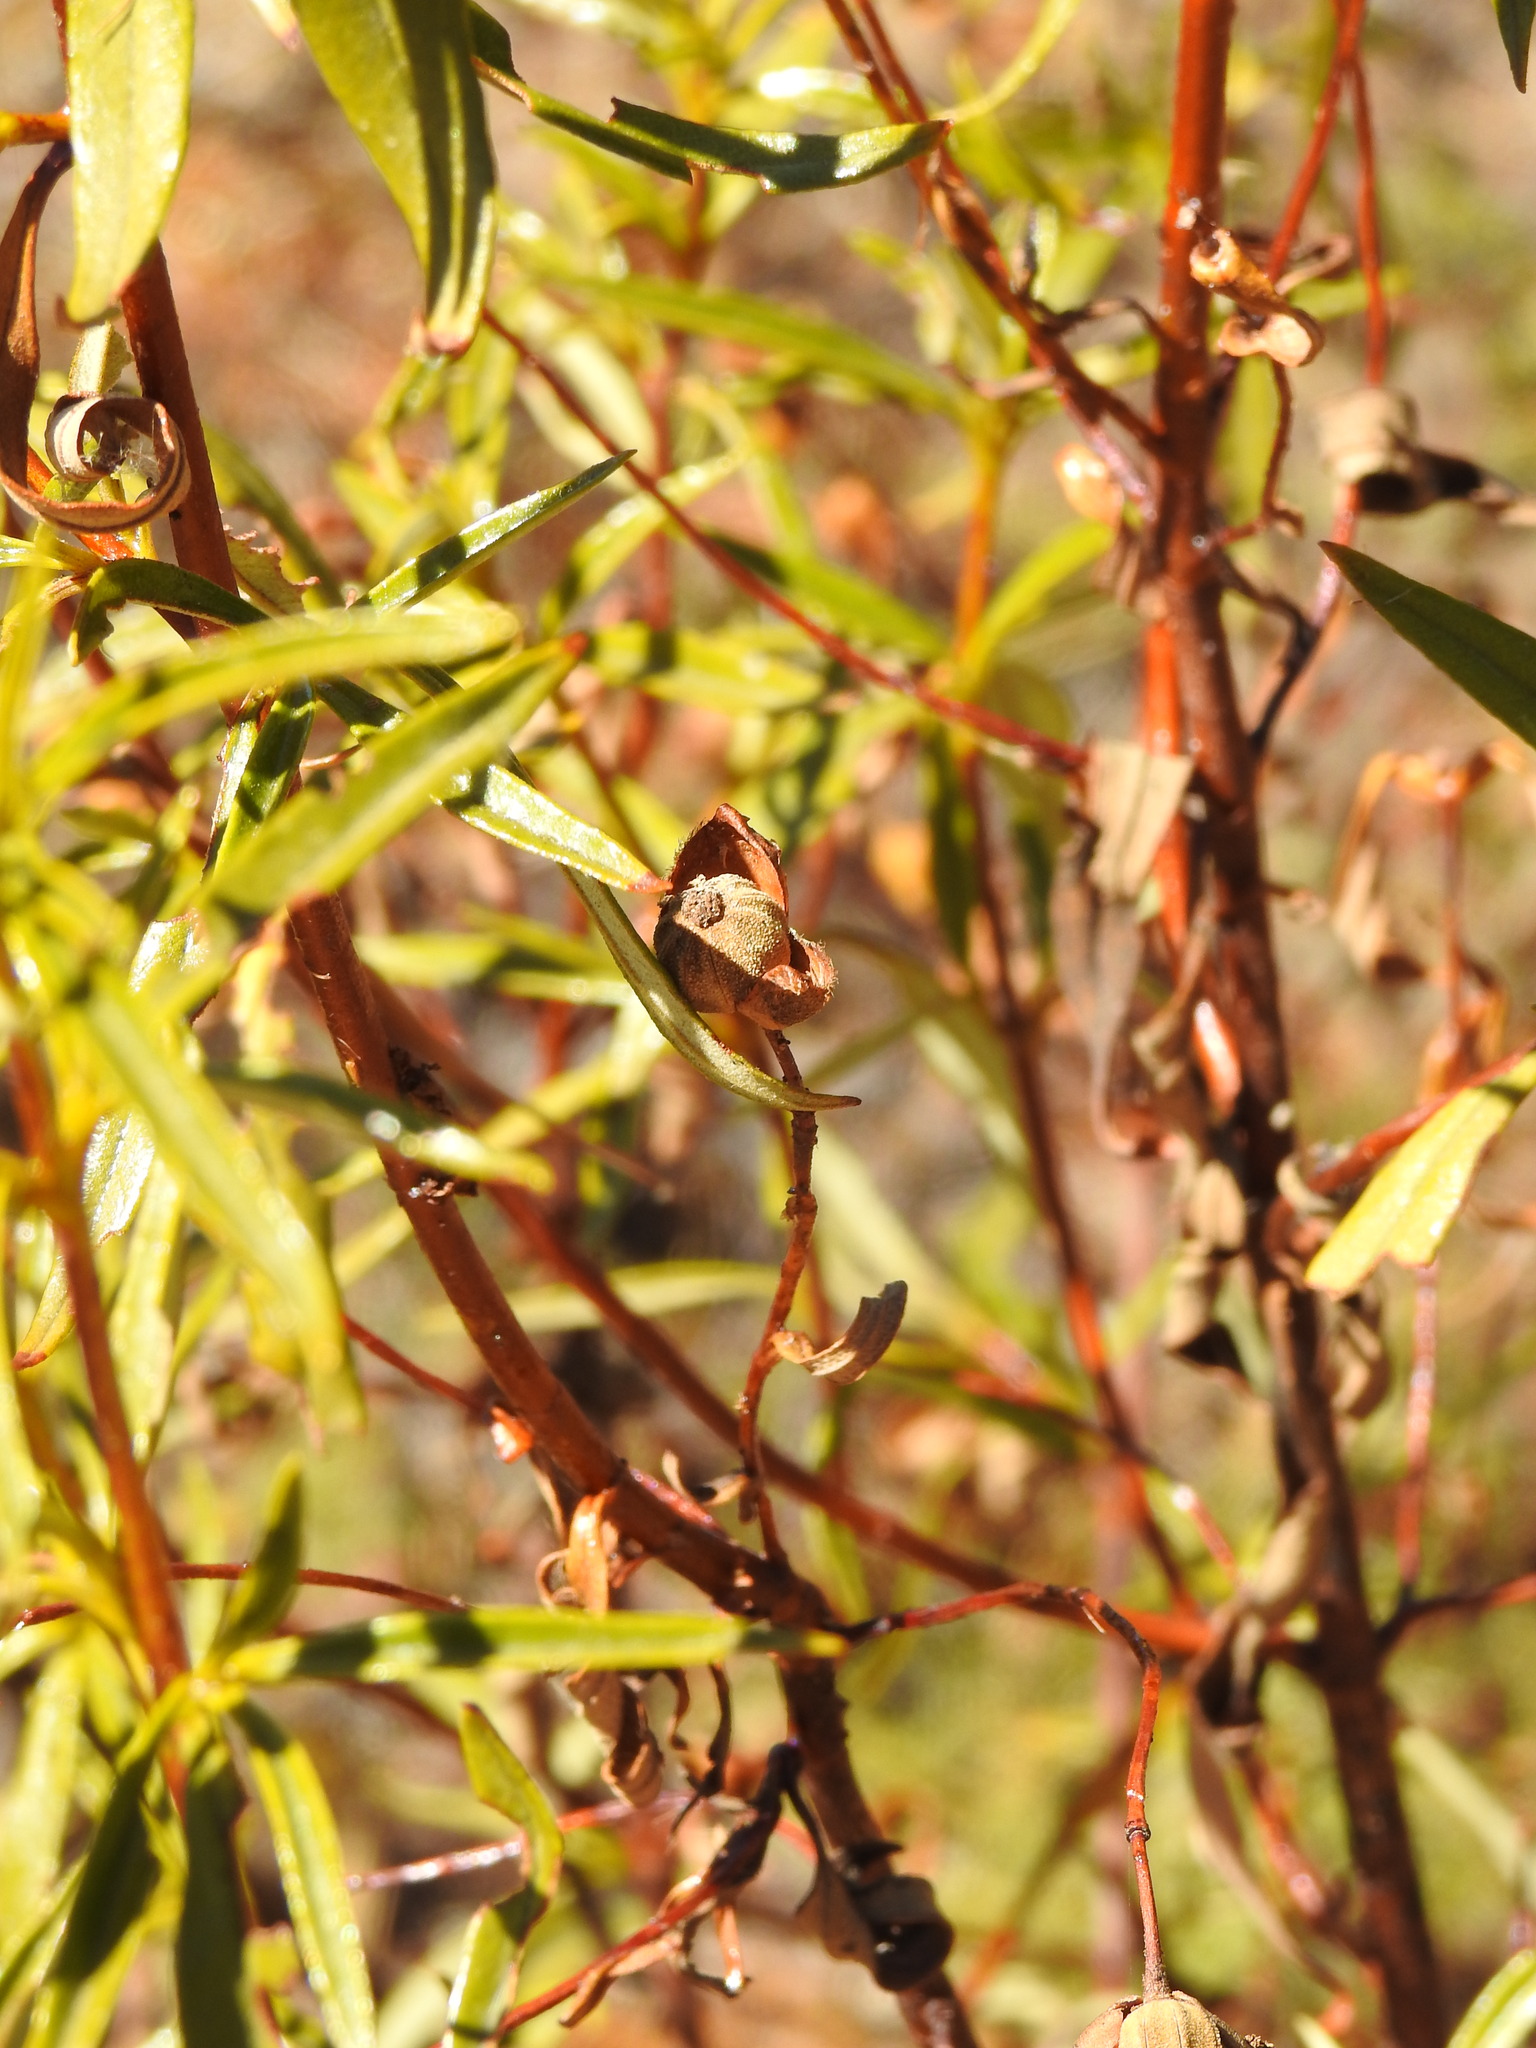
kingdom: Plantae
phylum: Tracheophyta
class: Magnoliopsida
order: Malvales
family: Cistaceae
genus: Cistus
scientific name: Cistus ladanifer
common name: Common gum cistus
